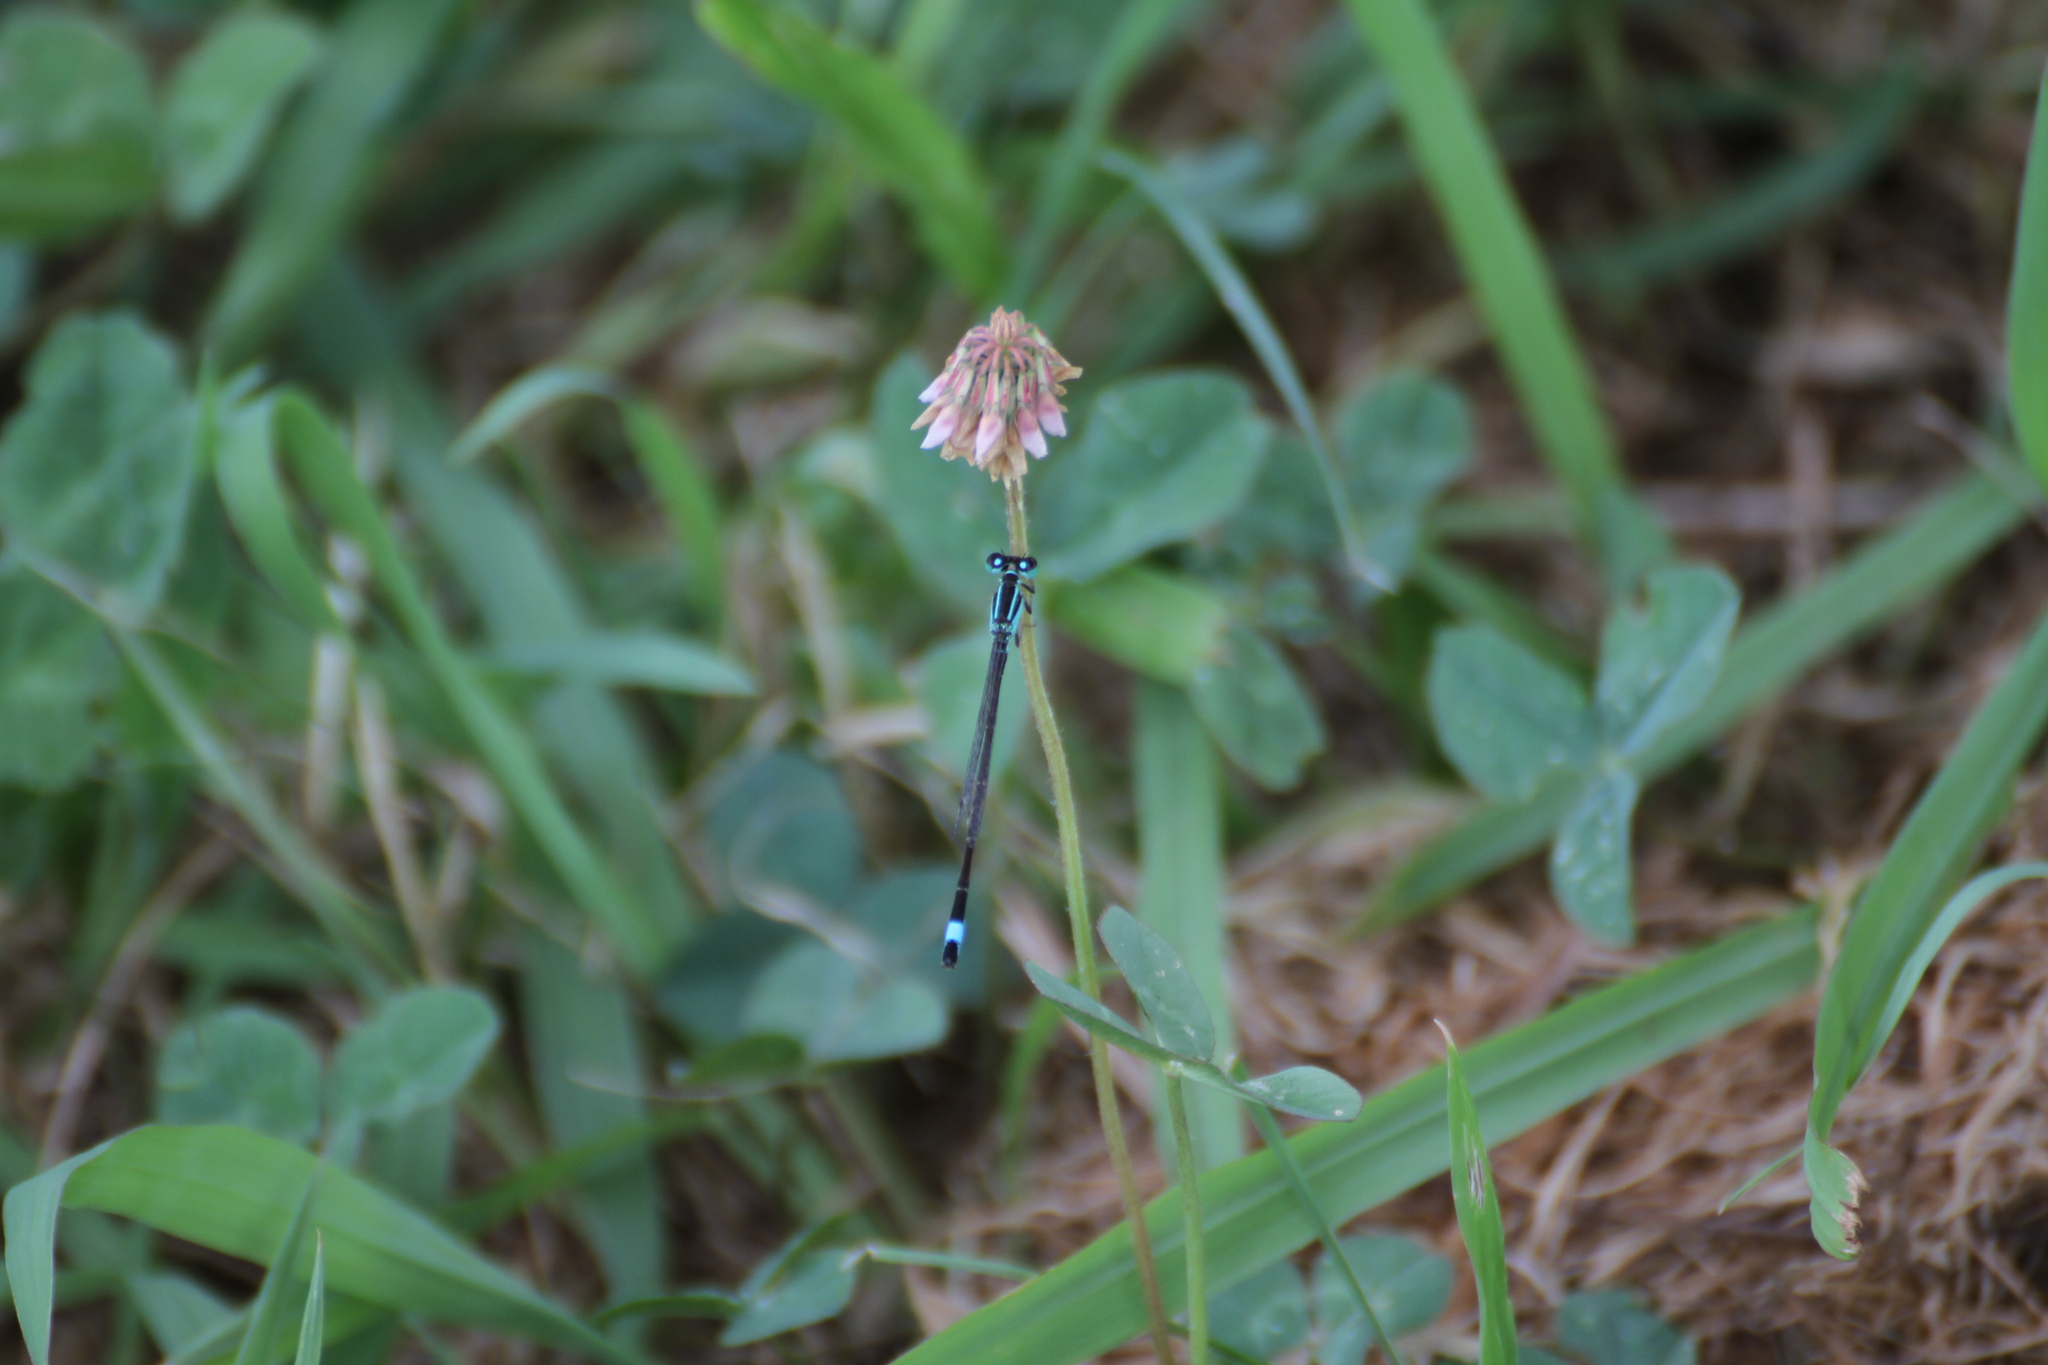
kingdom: Animalia
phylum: Arthropoda
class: Insecta
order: Odonata
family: Coenagrionidae
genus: Ischnura
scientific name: Ischnura elegans
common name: Blue-tailed damselfly
